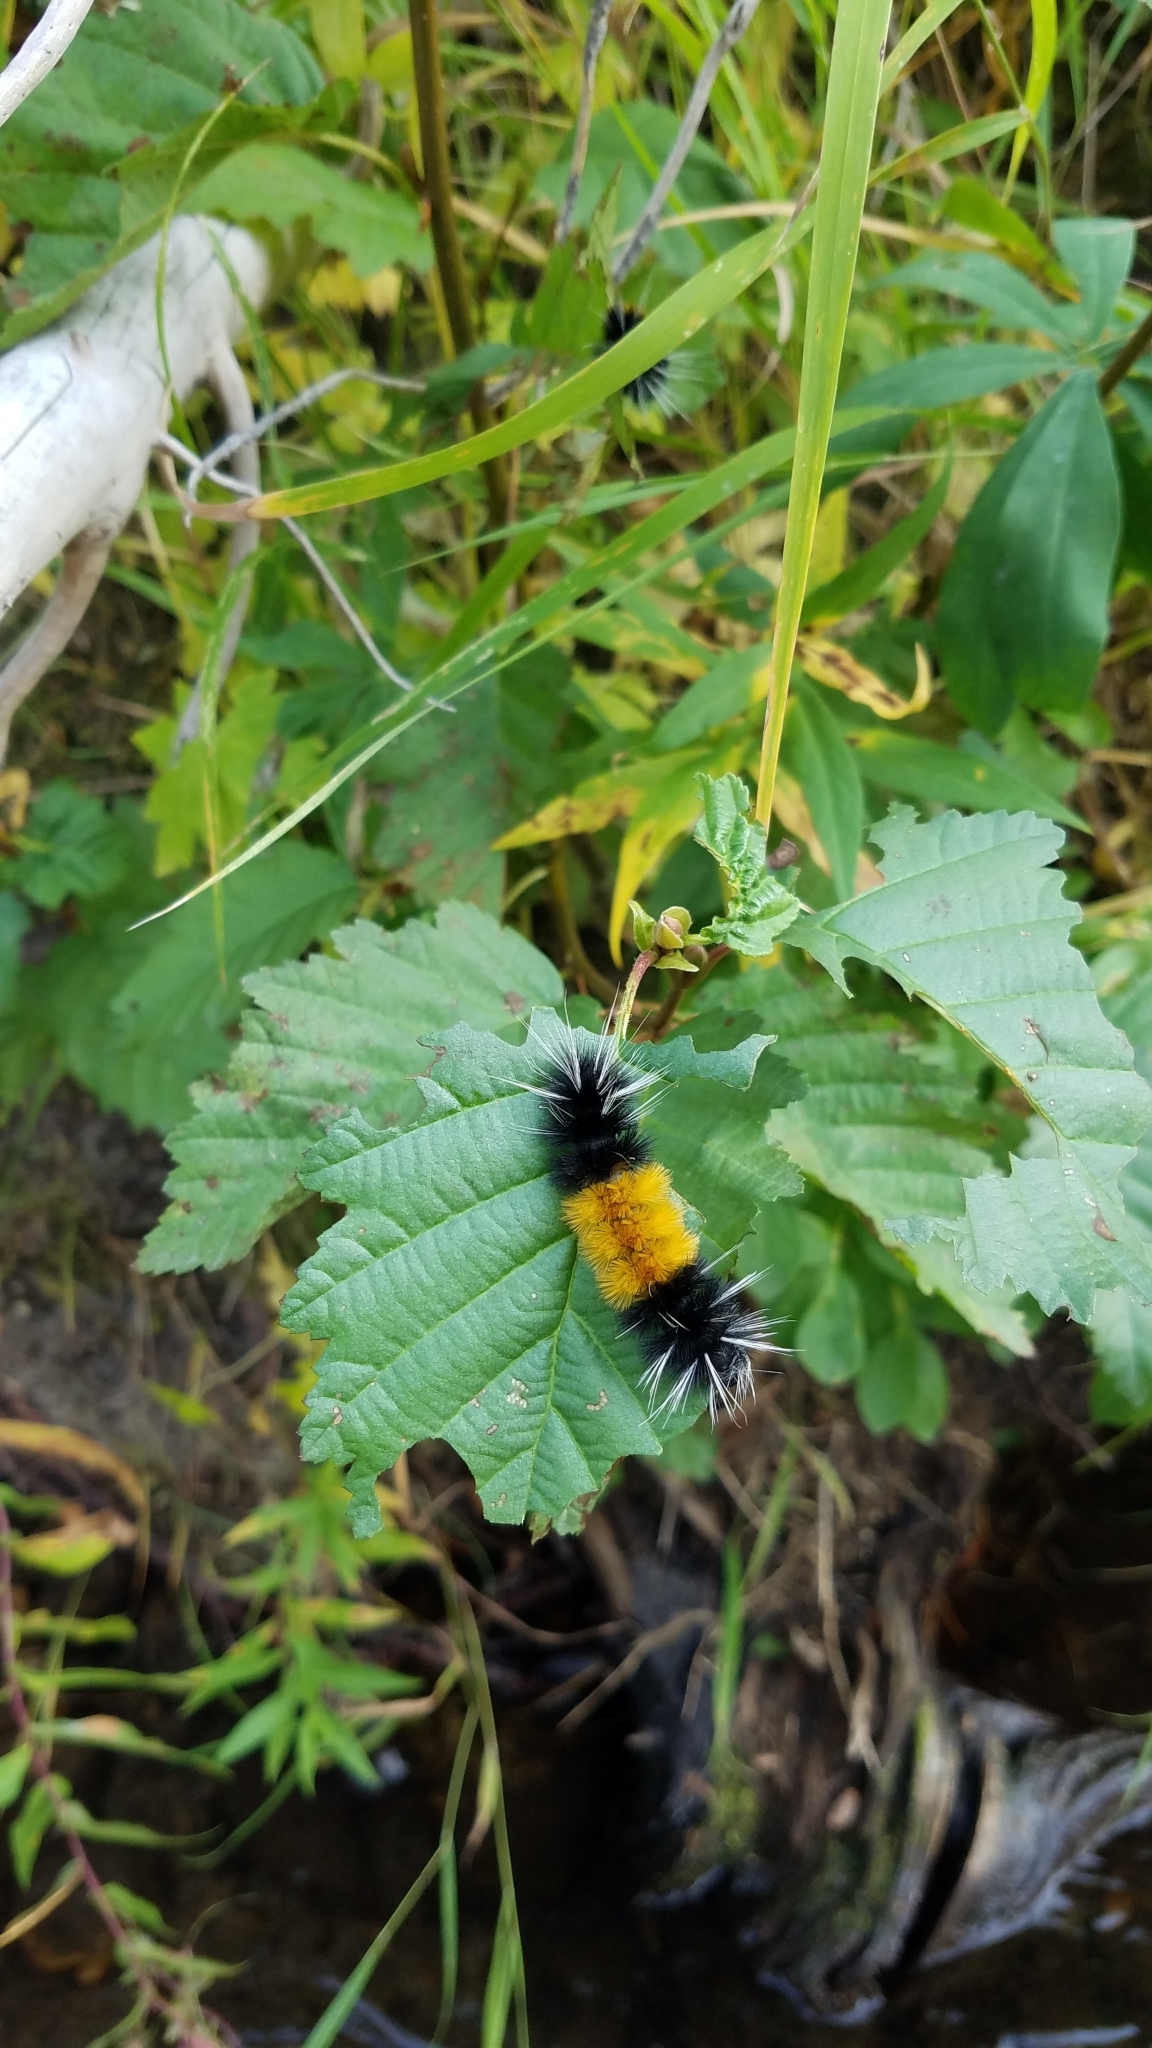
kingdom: Animalia
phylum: Arthropoda
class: Insecta
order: Lepidoptera
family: Erebidae
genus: Lophocampa
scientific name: Lophocampa maculata
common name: Spotted tussock moth
